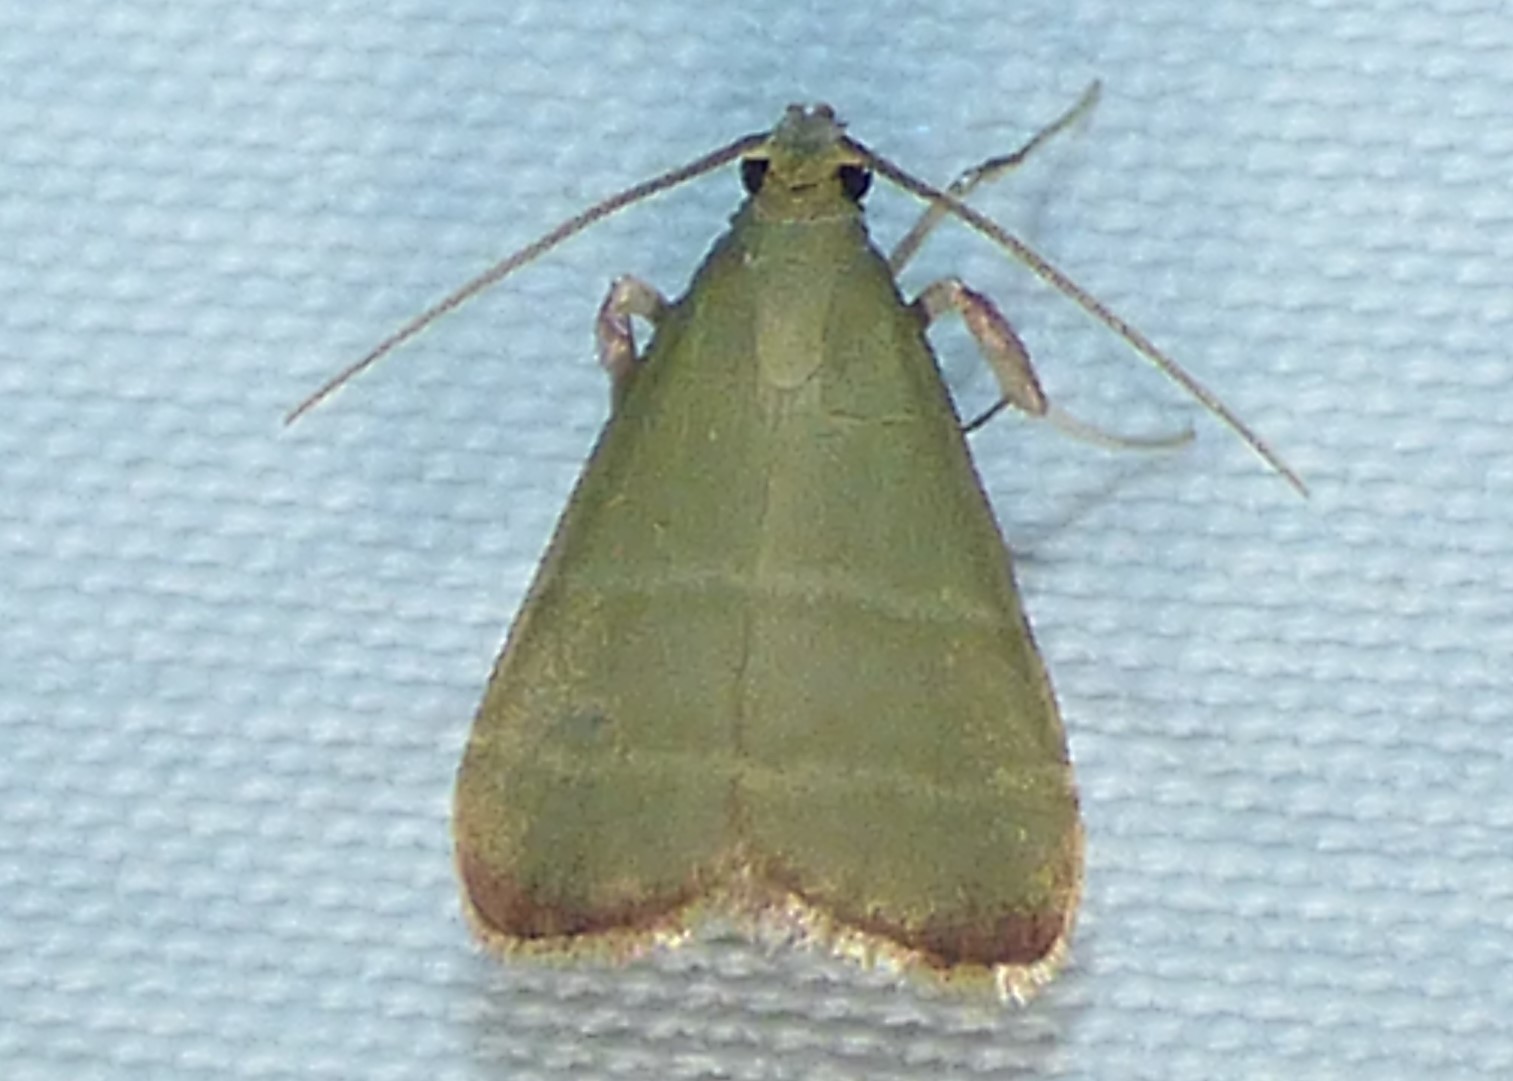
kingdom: Animalia
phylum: Arthropoda
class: Insecta
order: Lepidoptera
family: Pyralidae
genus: Arta
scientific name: Arta olivalis
